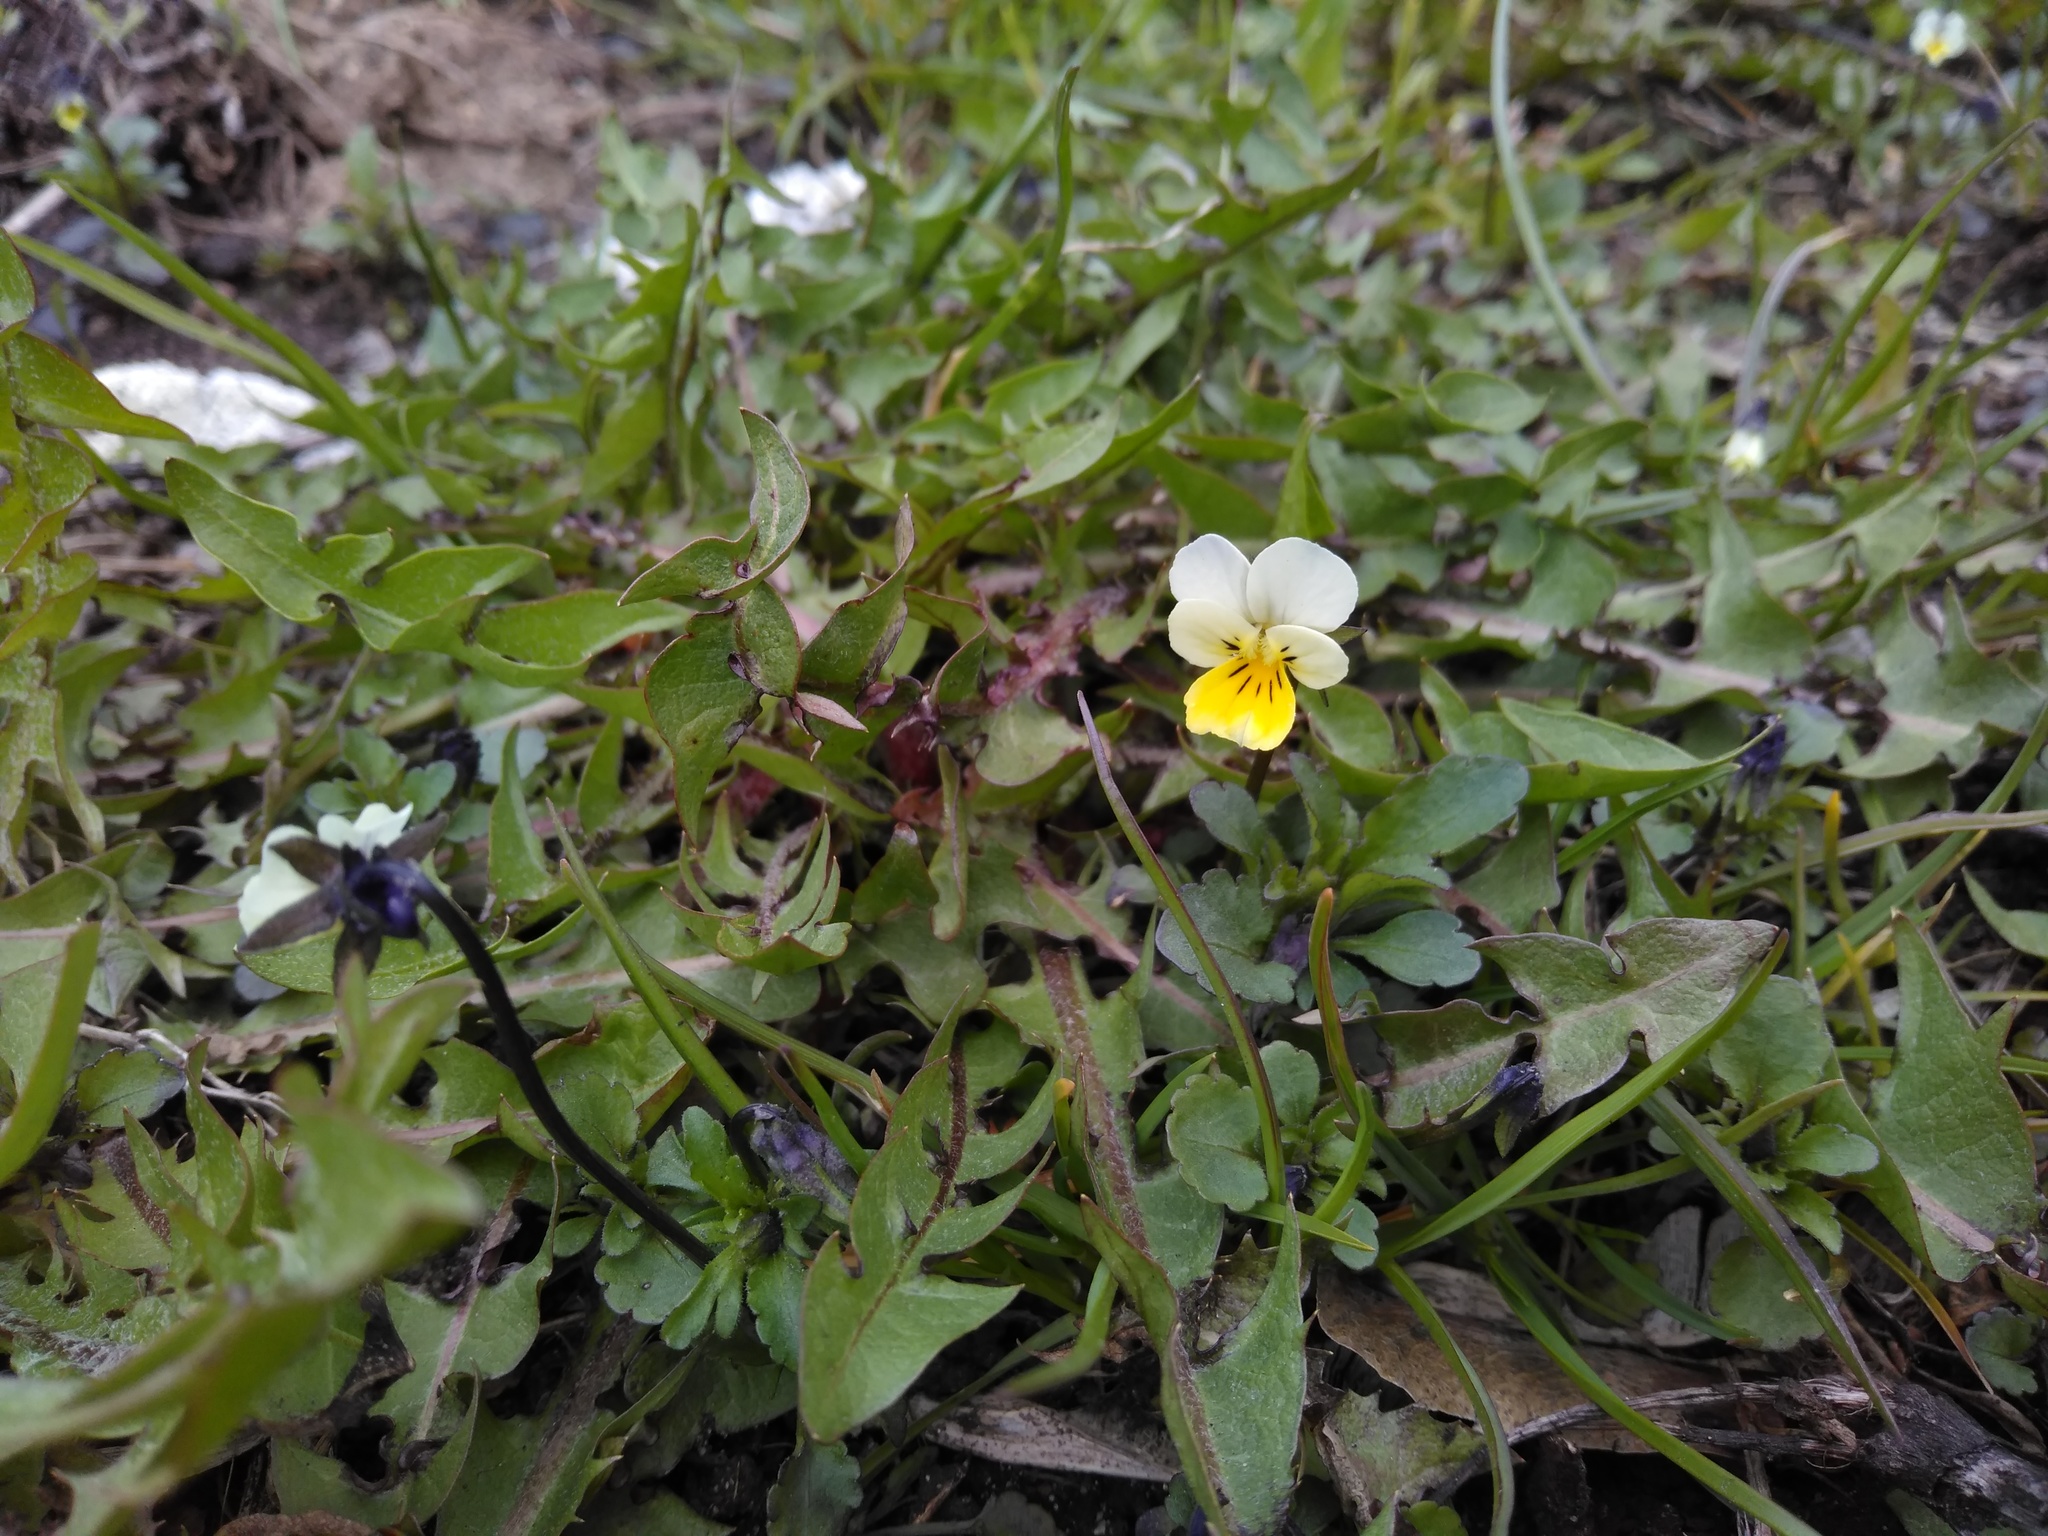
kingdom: Plantae
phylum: Tracheophyta
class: Magnoliopsida
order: Malpighiales
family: Violaceae
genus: Viola
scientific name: Viola arvensis
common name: Field pansy
